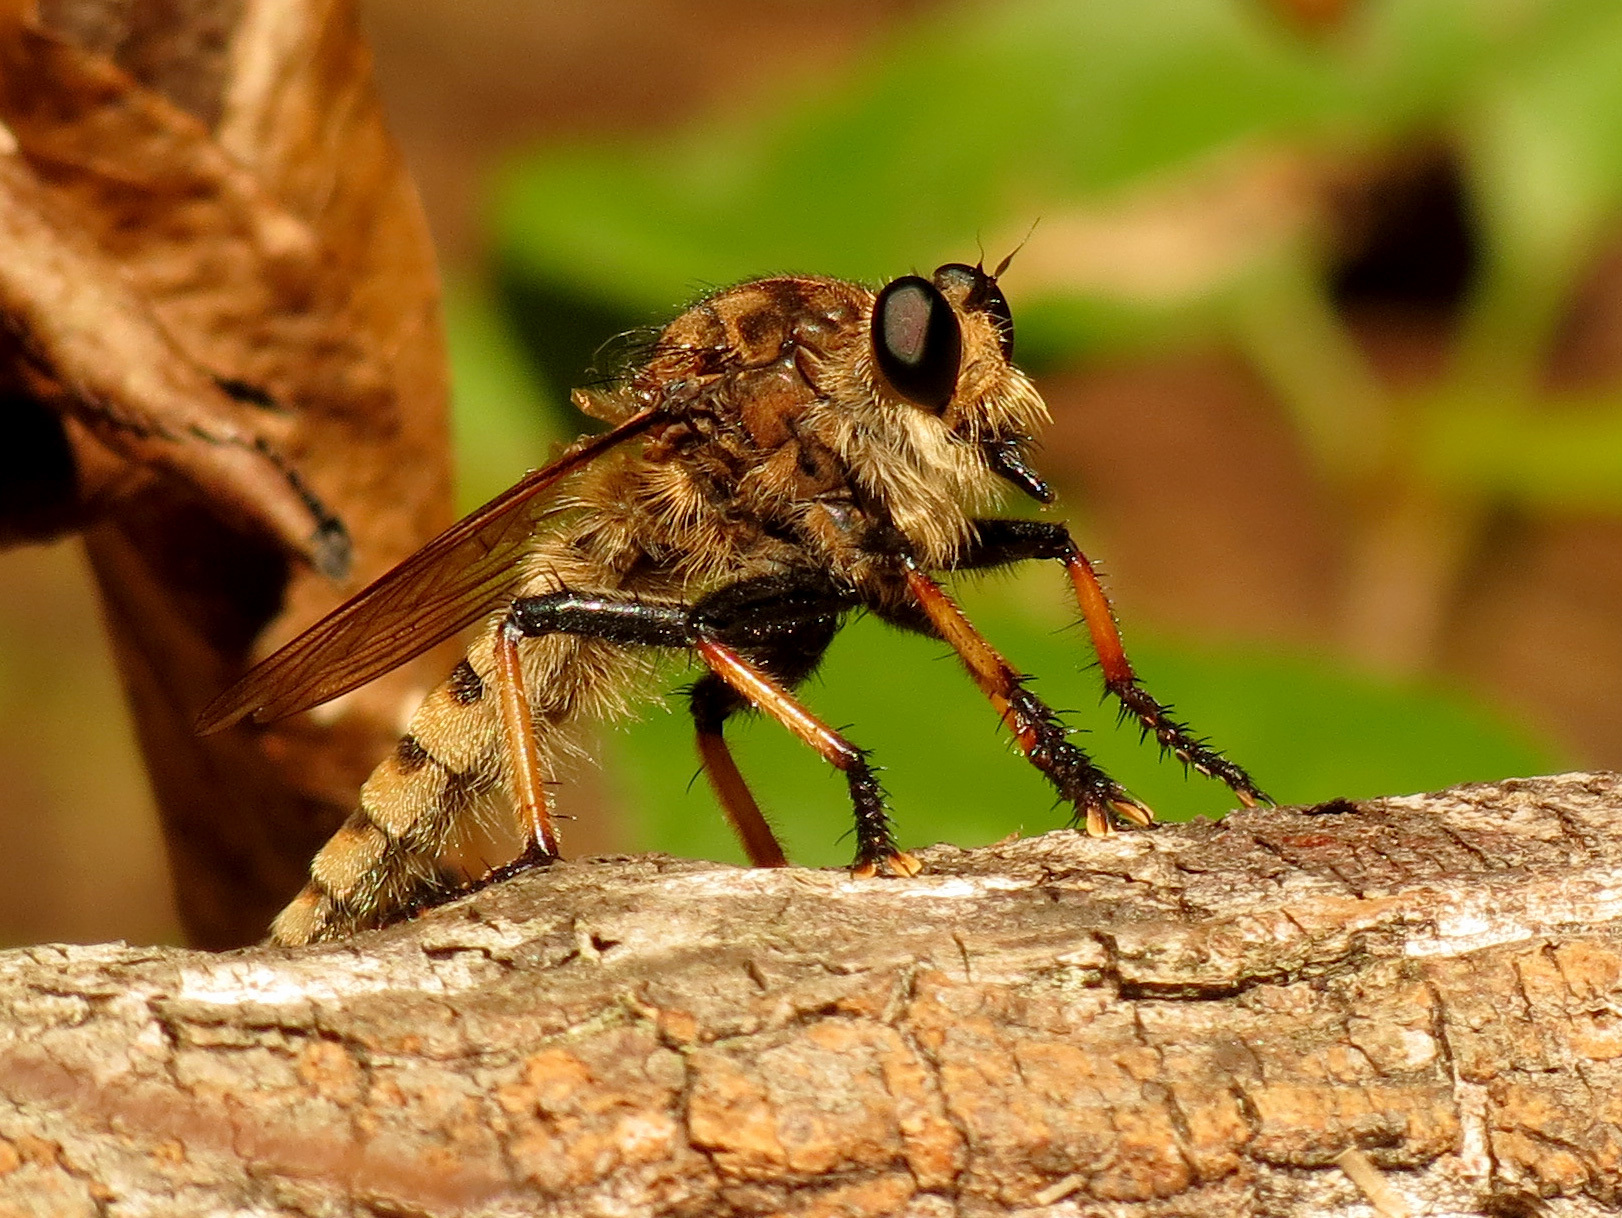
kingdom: Animalia
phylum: Arthropoda
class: Insecta
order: Diptera
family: Asilidae
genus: Promachus
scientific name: Promachus rufipes
